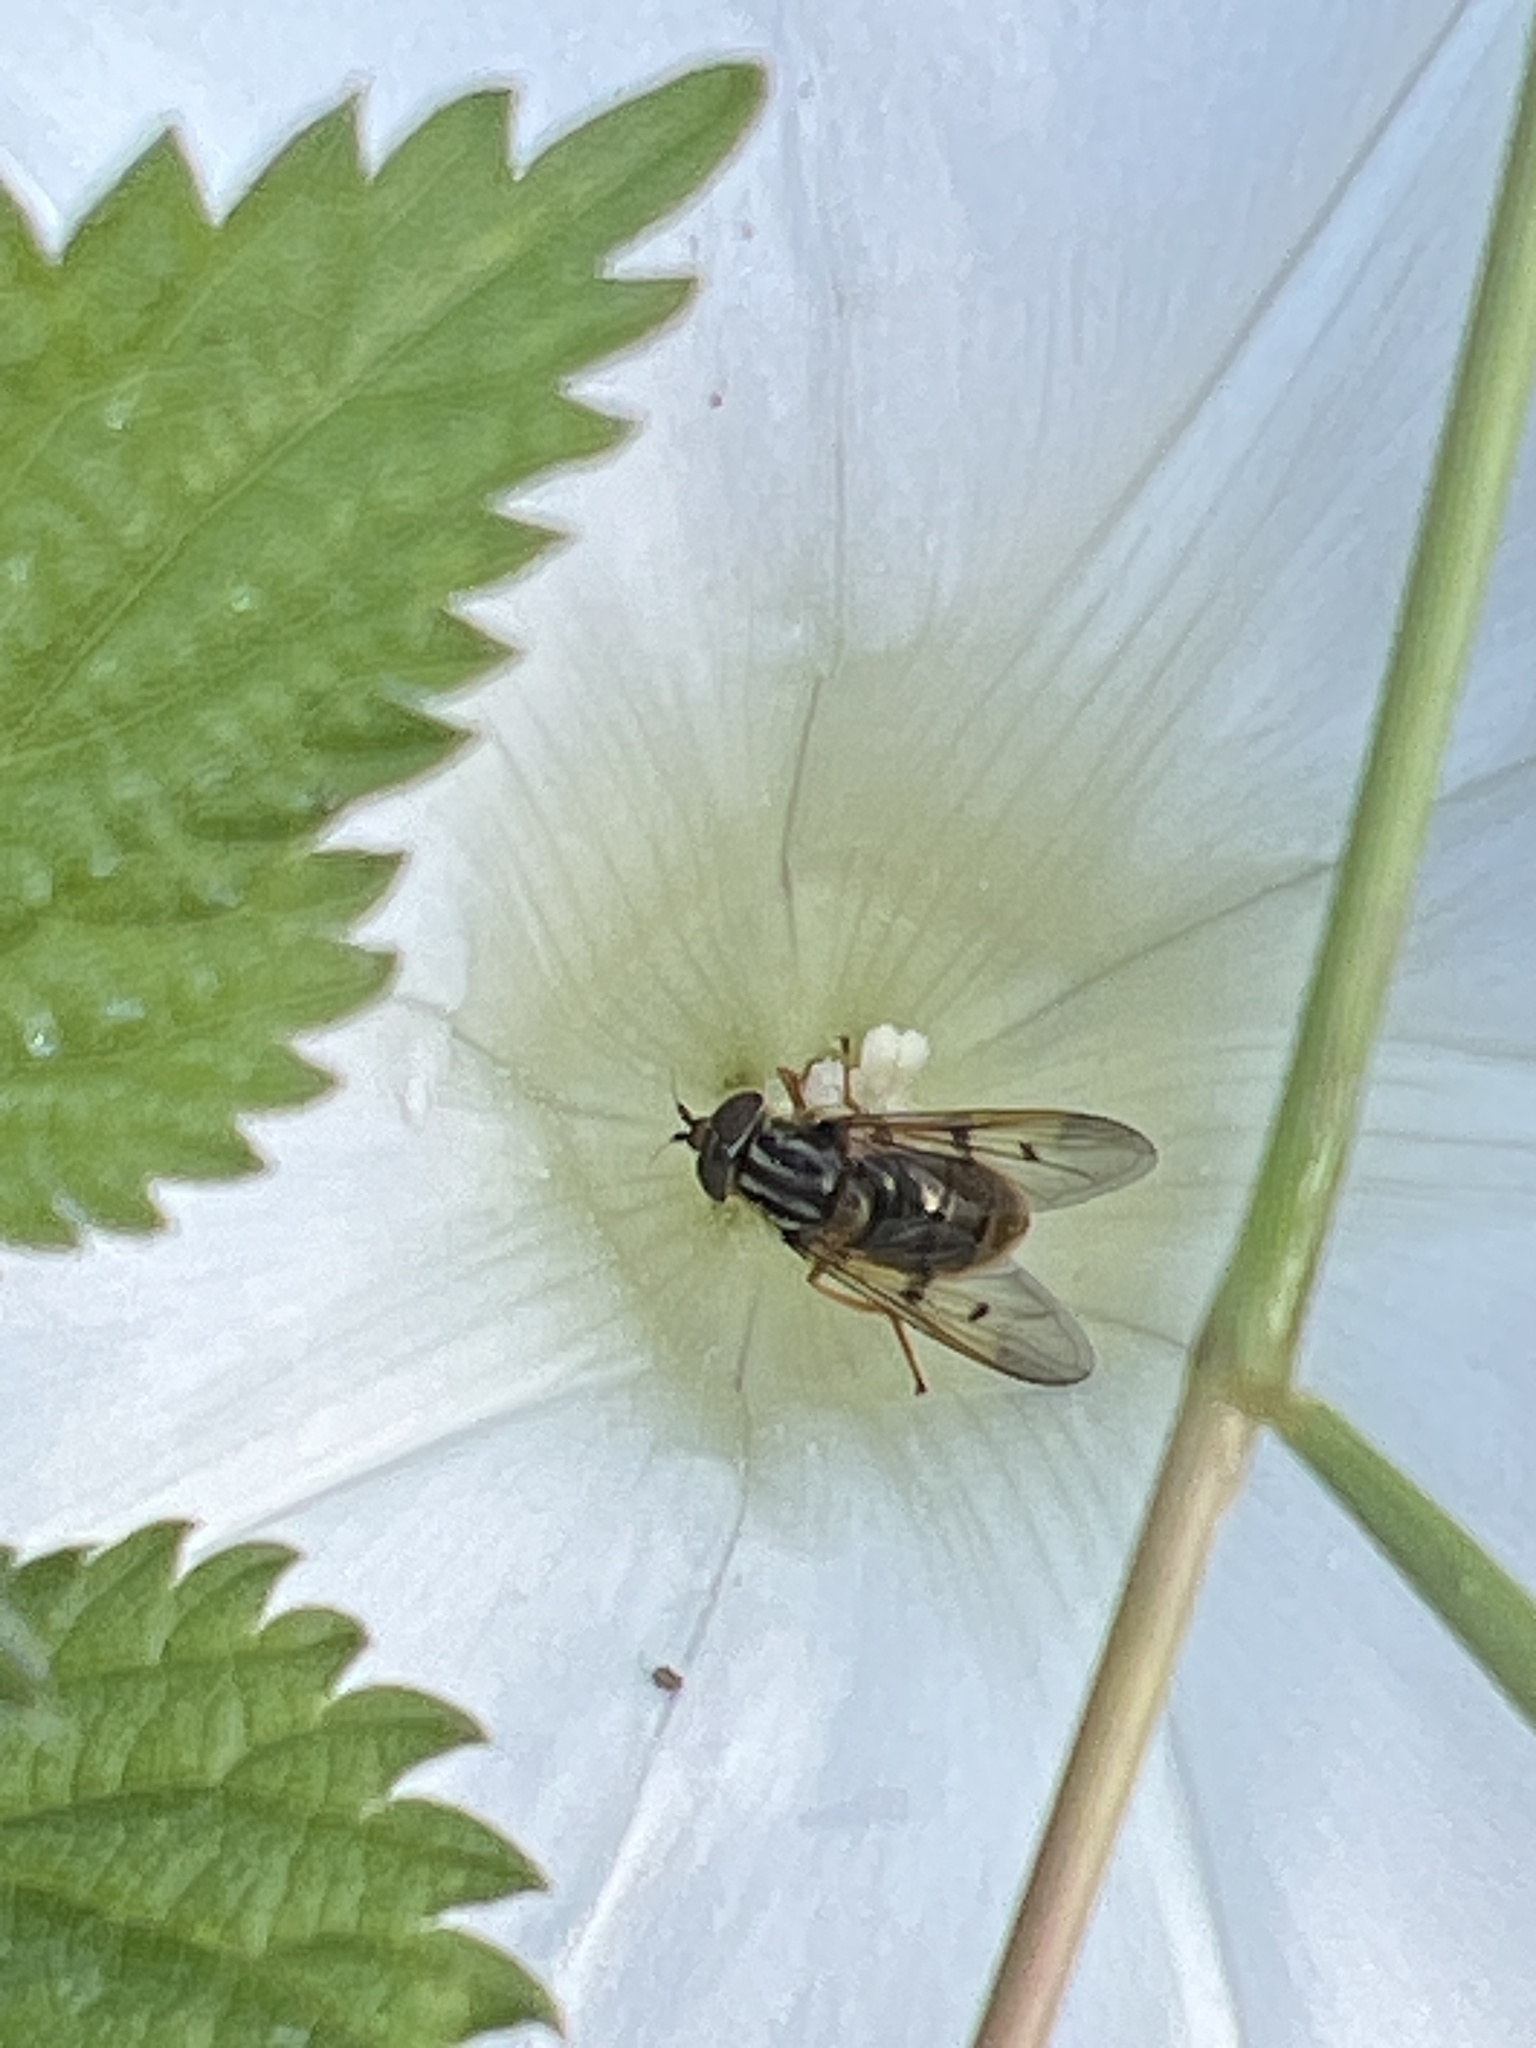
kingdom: Animalia
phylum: Arthropoda
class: Insecta
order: Diptera
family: Syrphidae
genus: Ferdinandea
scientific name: Ferdinandea
